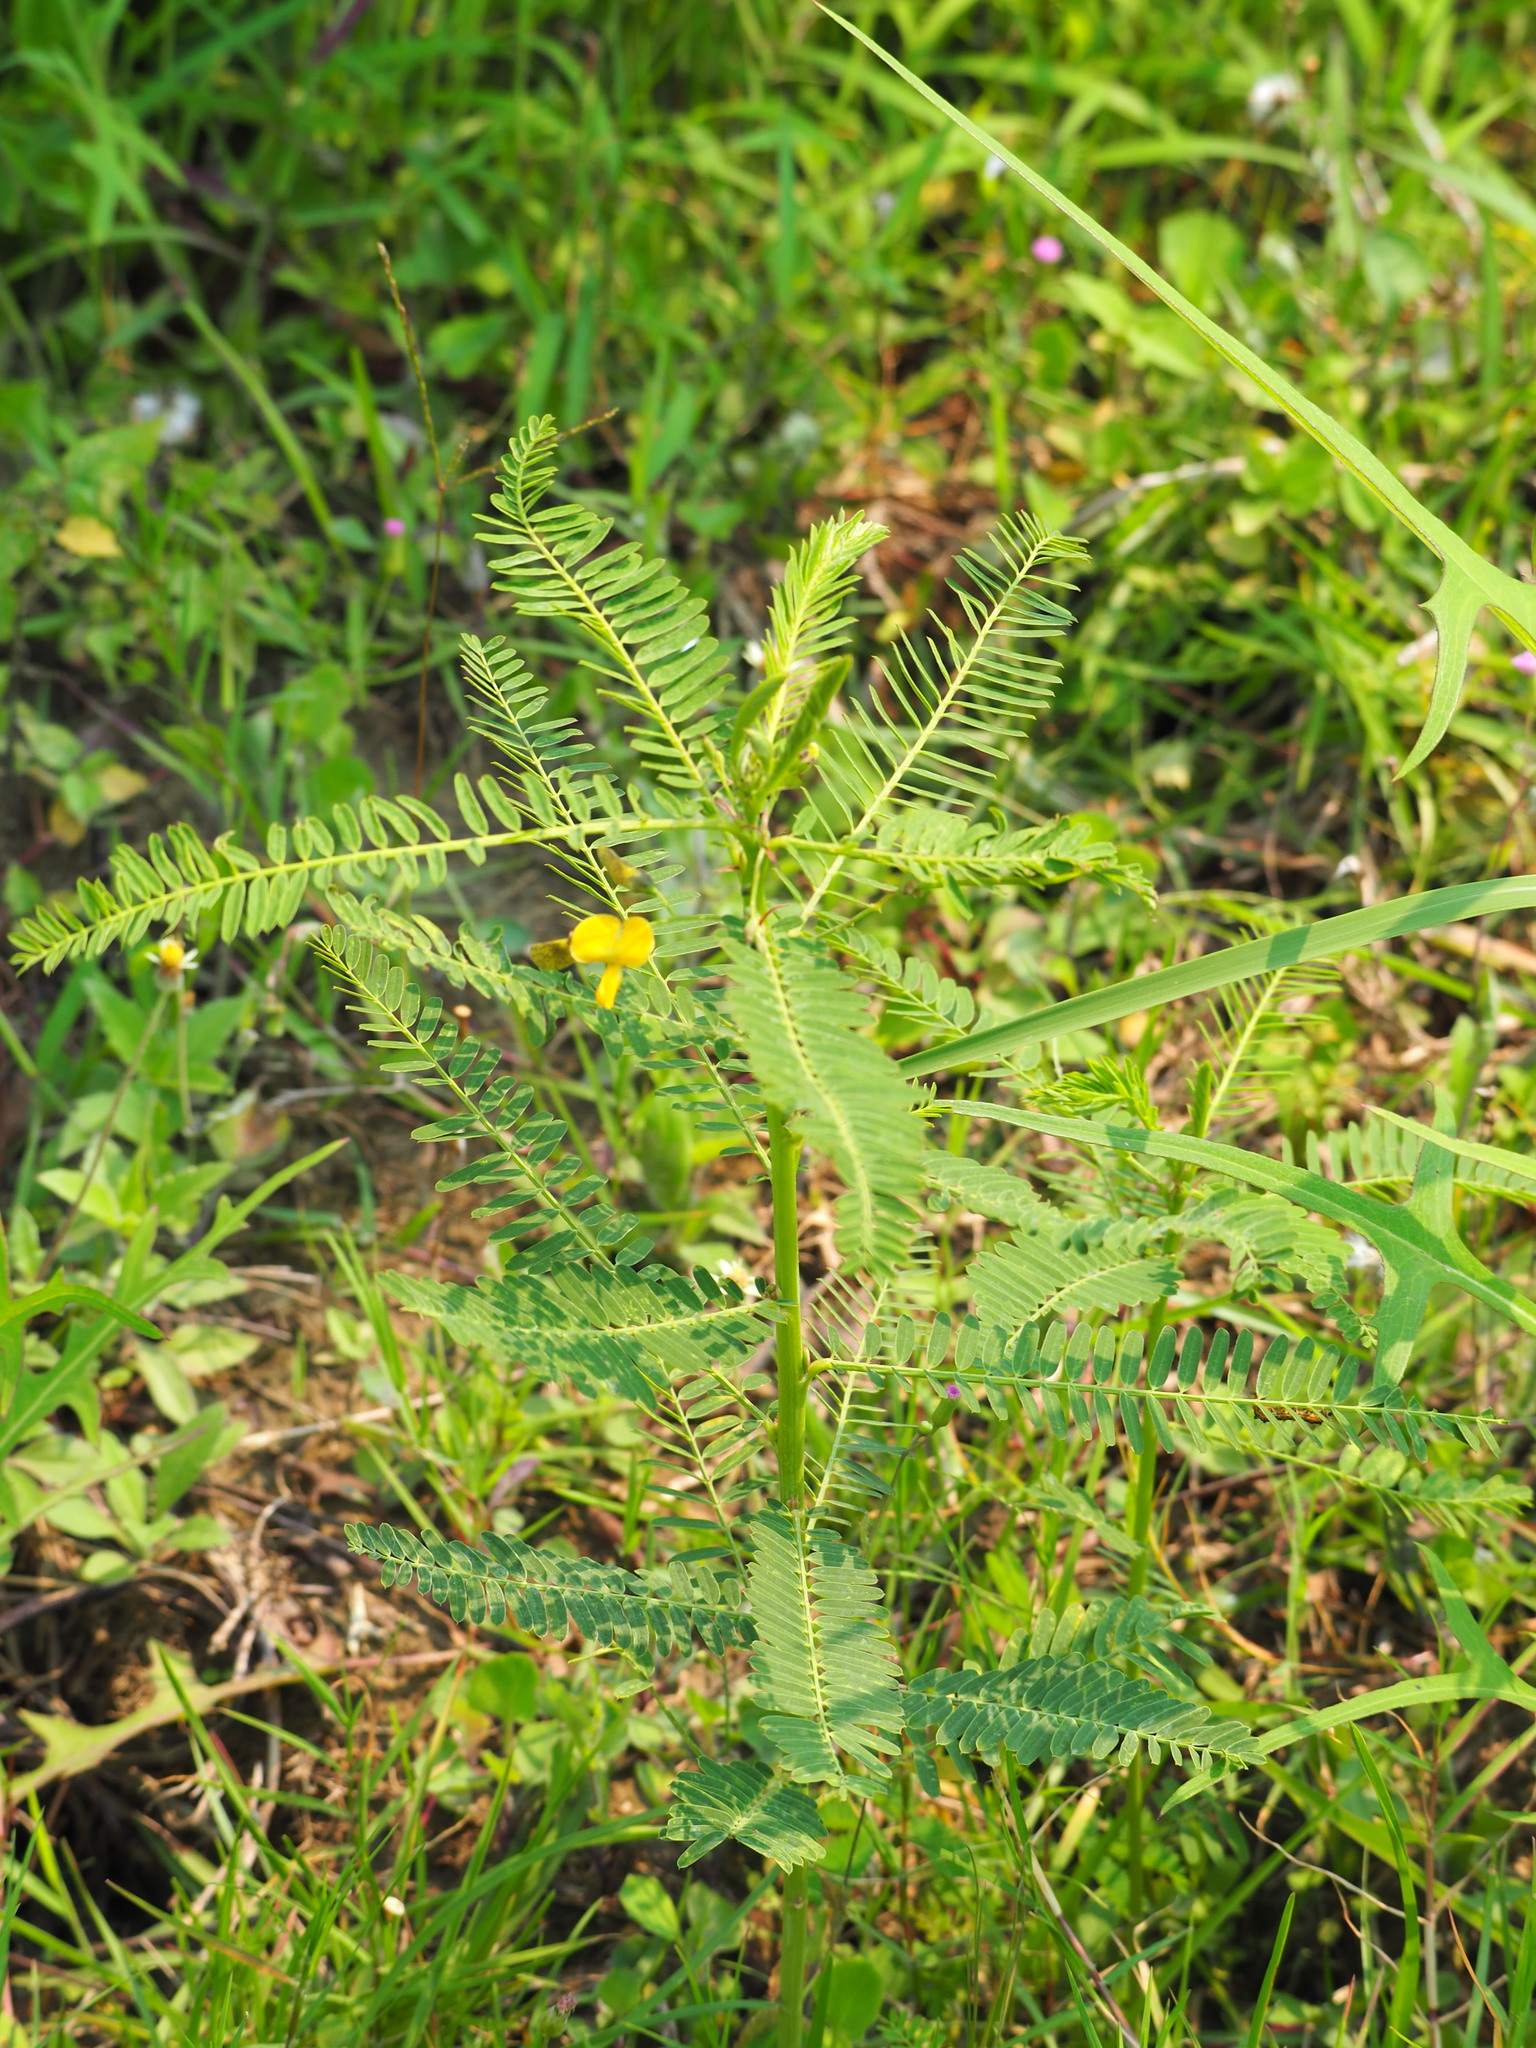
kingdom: Plantae
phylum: Tracheophyta
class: Magnoliopsida
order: Fabales
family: Fabaceae
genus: Sesbania
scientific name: Sesbania cannabina
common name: Canicha
